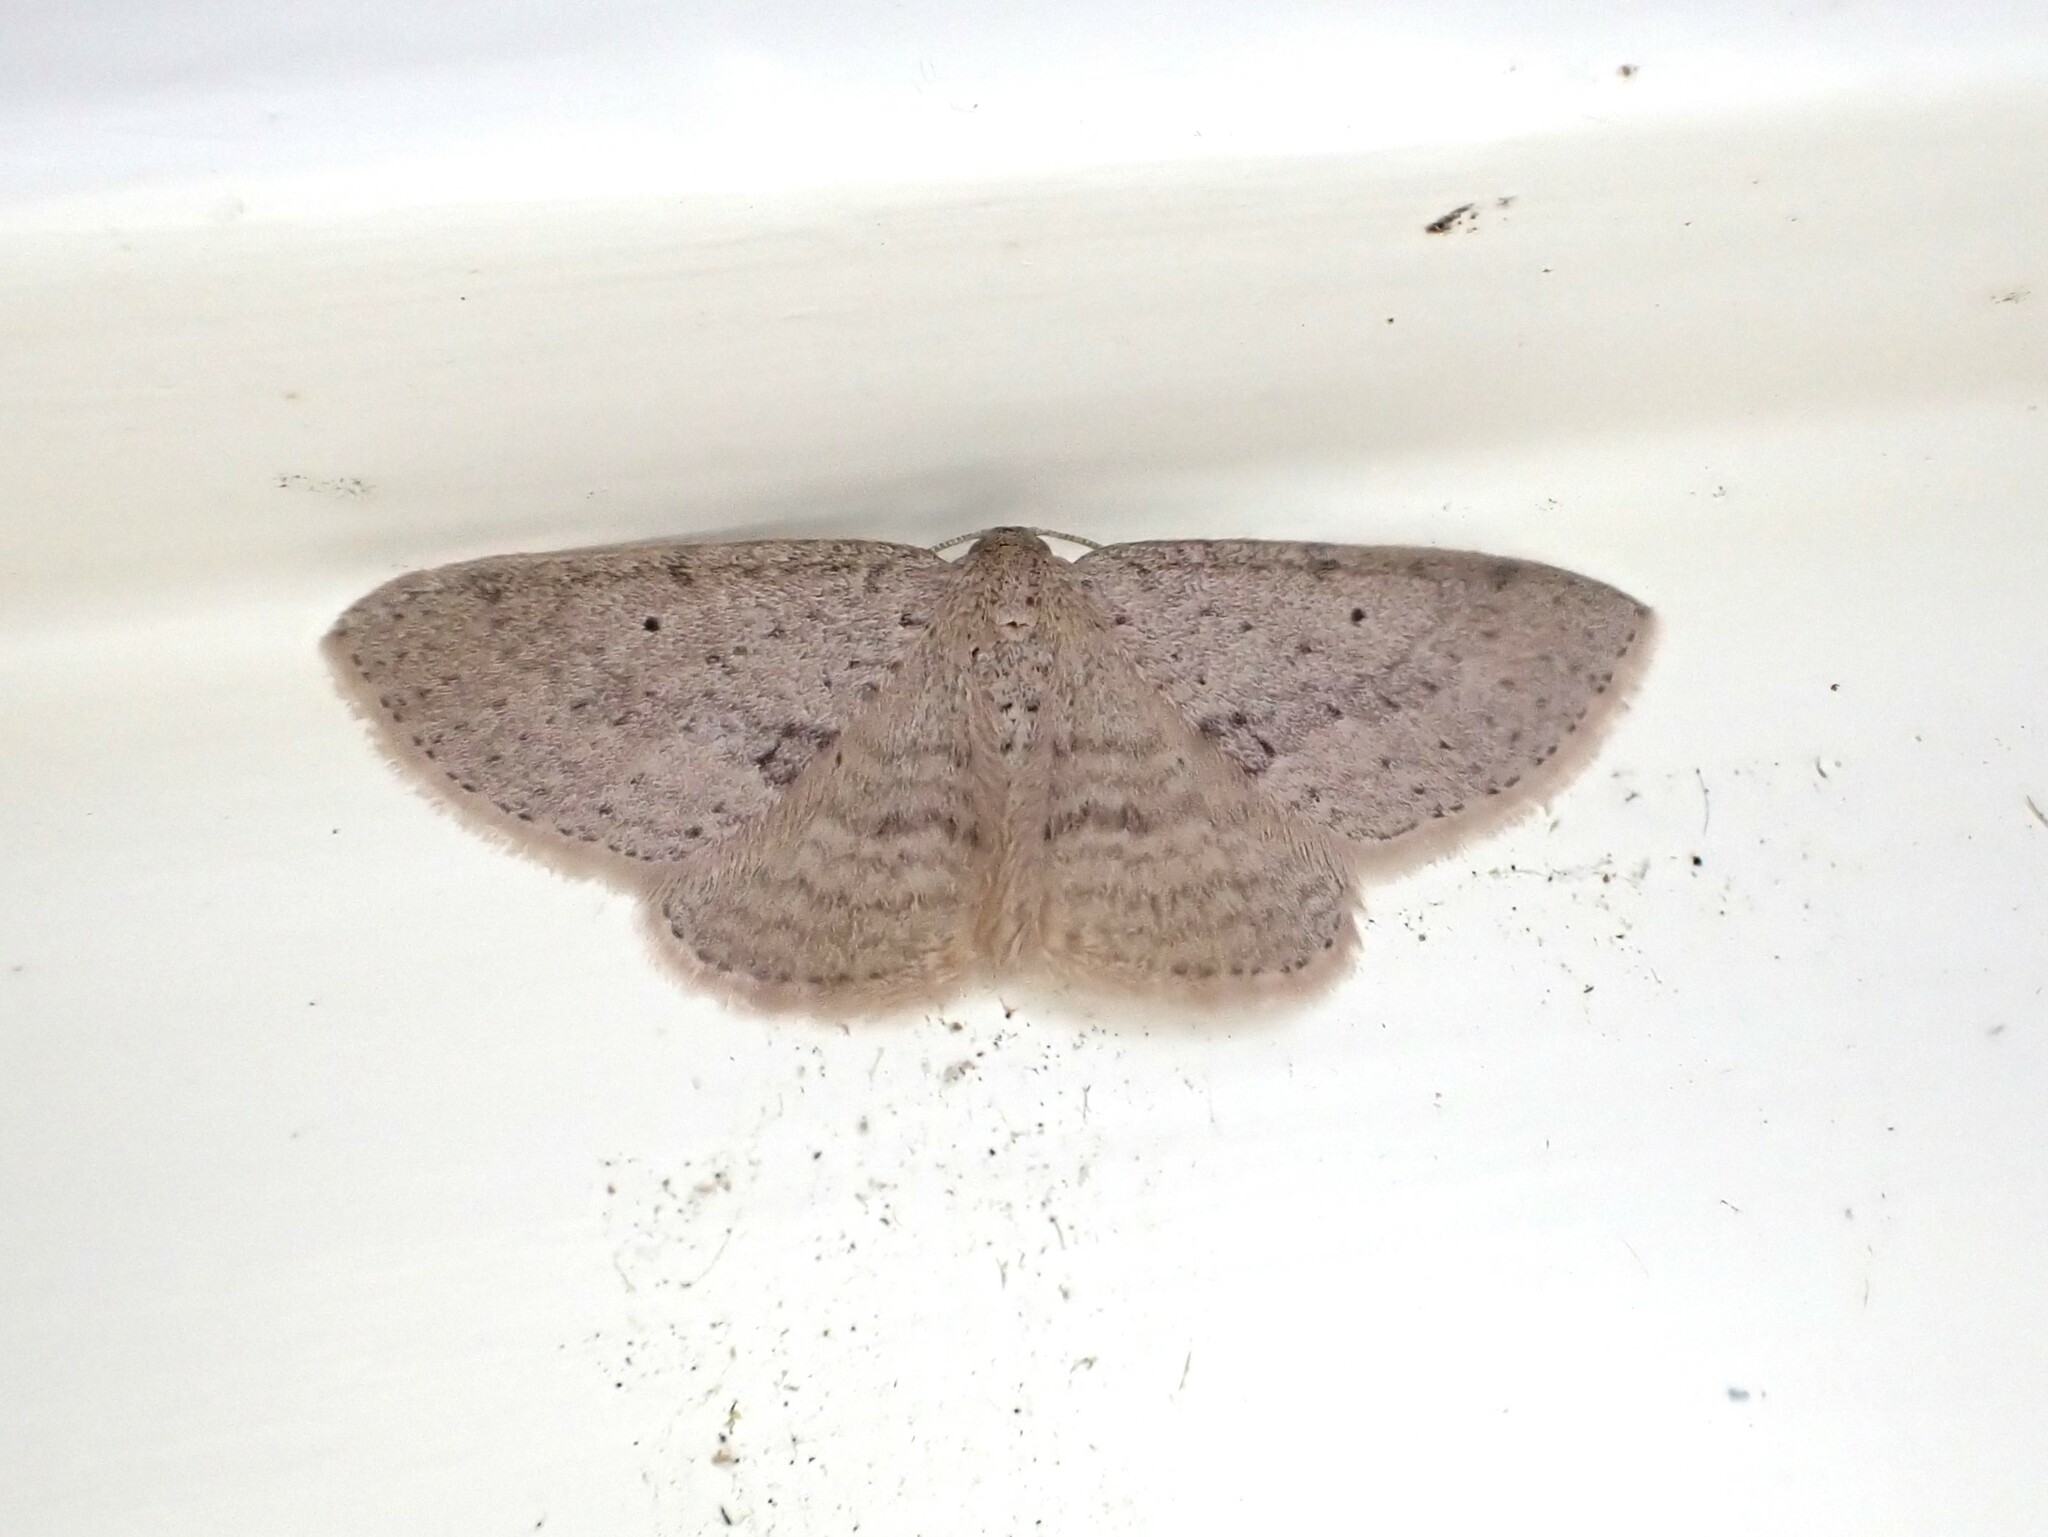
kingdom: Animalia
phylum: Arthropoda
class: Insecta
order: Lepidoptera
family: Geometridae
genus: Poecilasthena
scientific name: Poecilasthena schistaria
